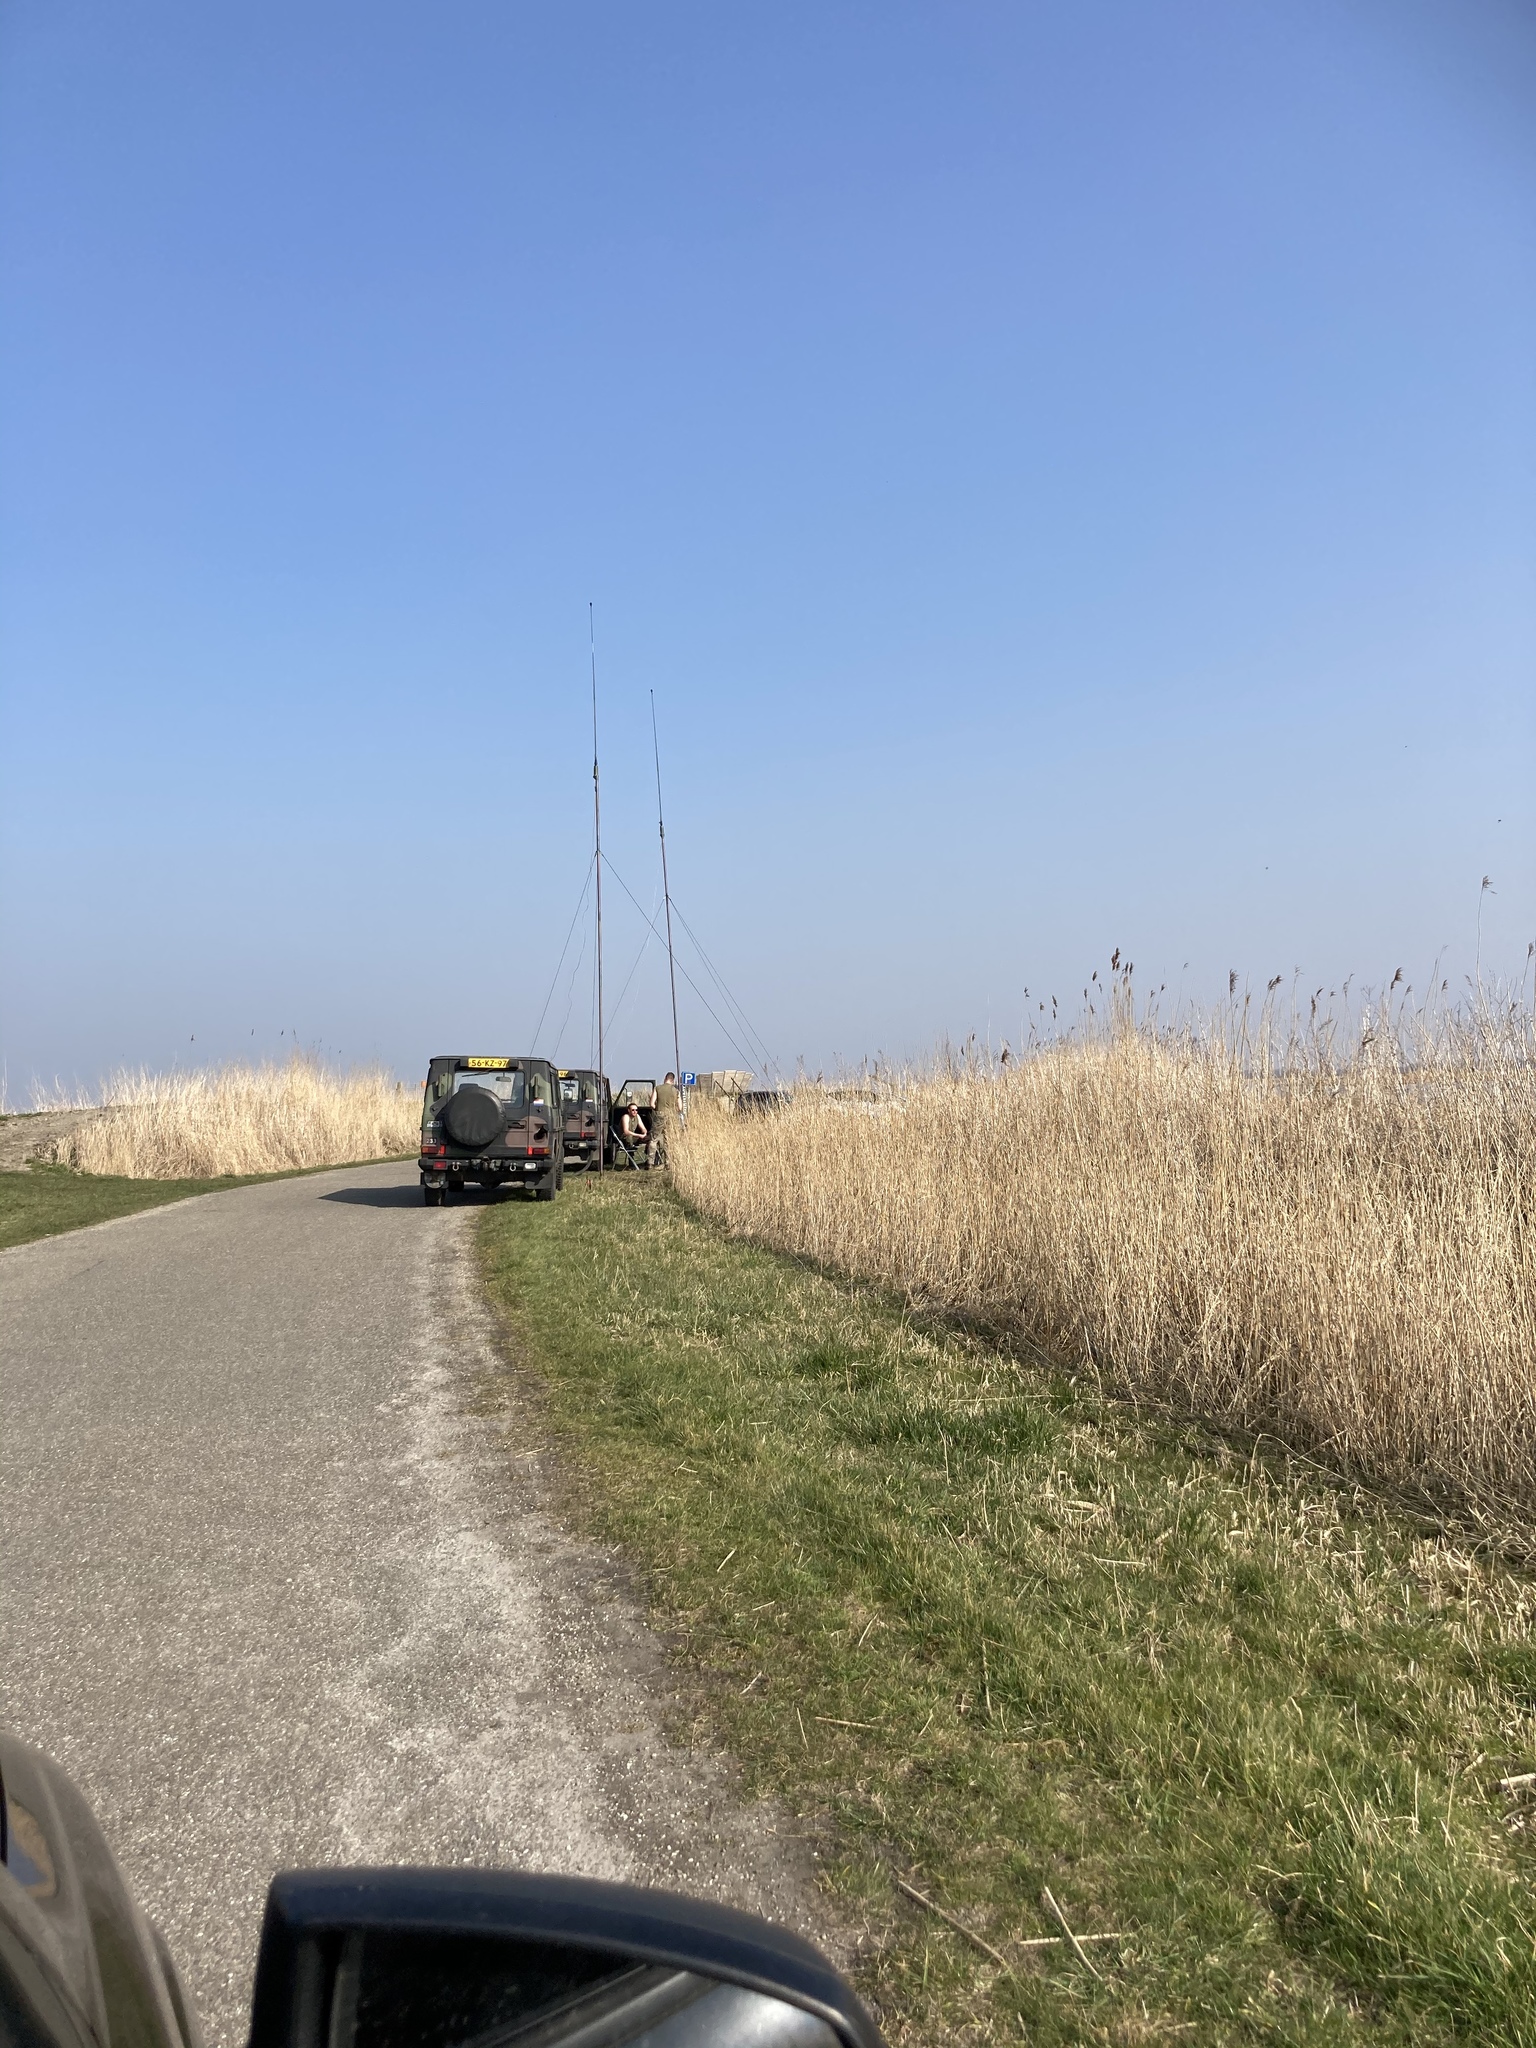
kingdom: Plantae
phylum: Tracheophyta
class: Liliopsida
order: Poales
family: Poaceae
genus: Phragmites
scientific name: Phragmites australis
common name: Common reed
